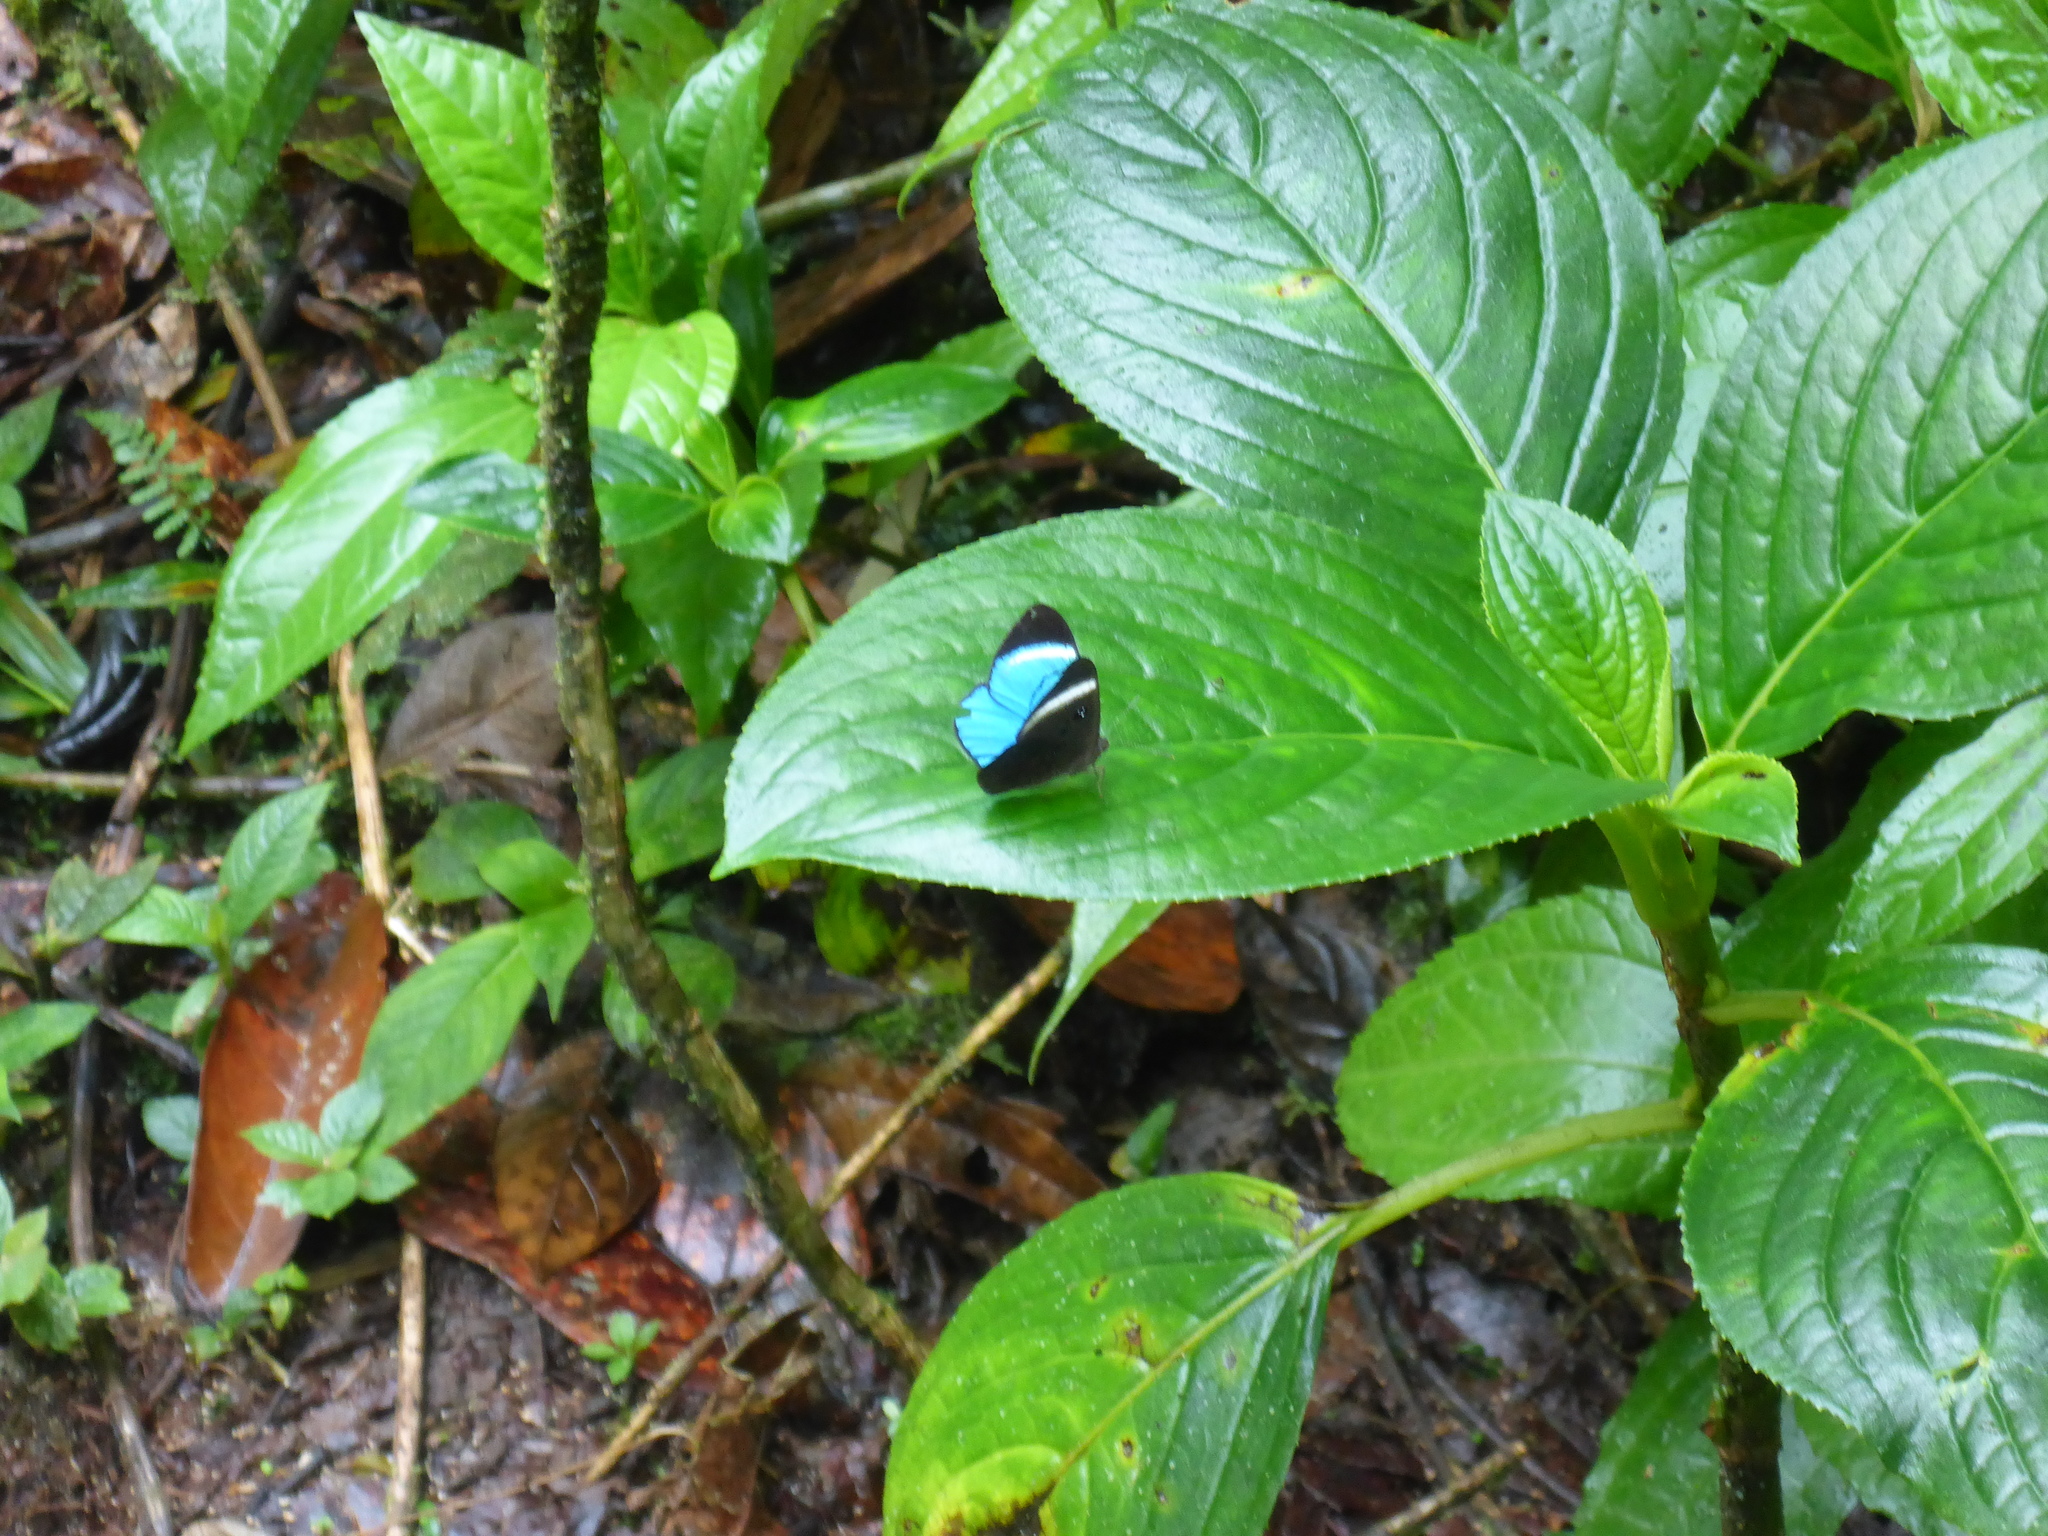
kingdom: Animalia
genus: Mesosemia
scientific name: Mesosemia loruhama
